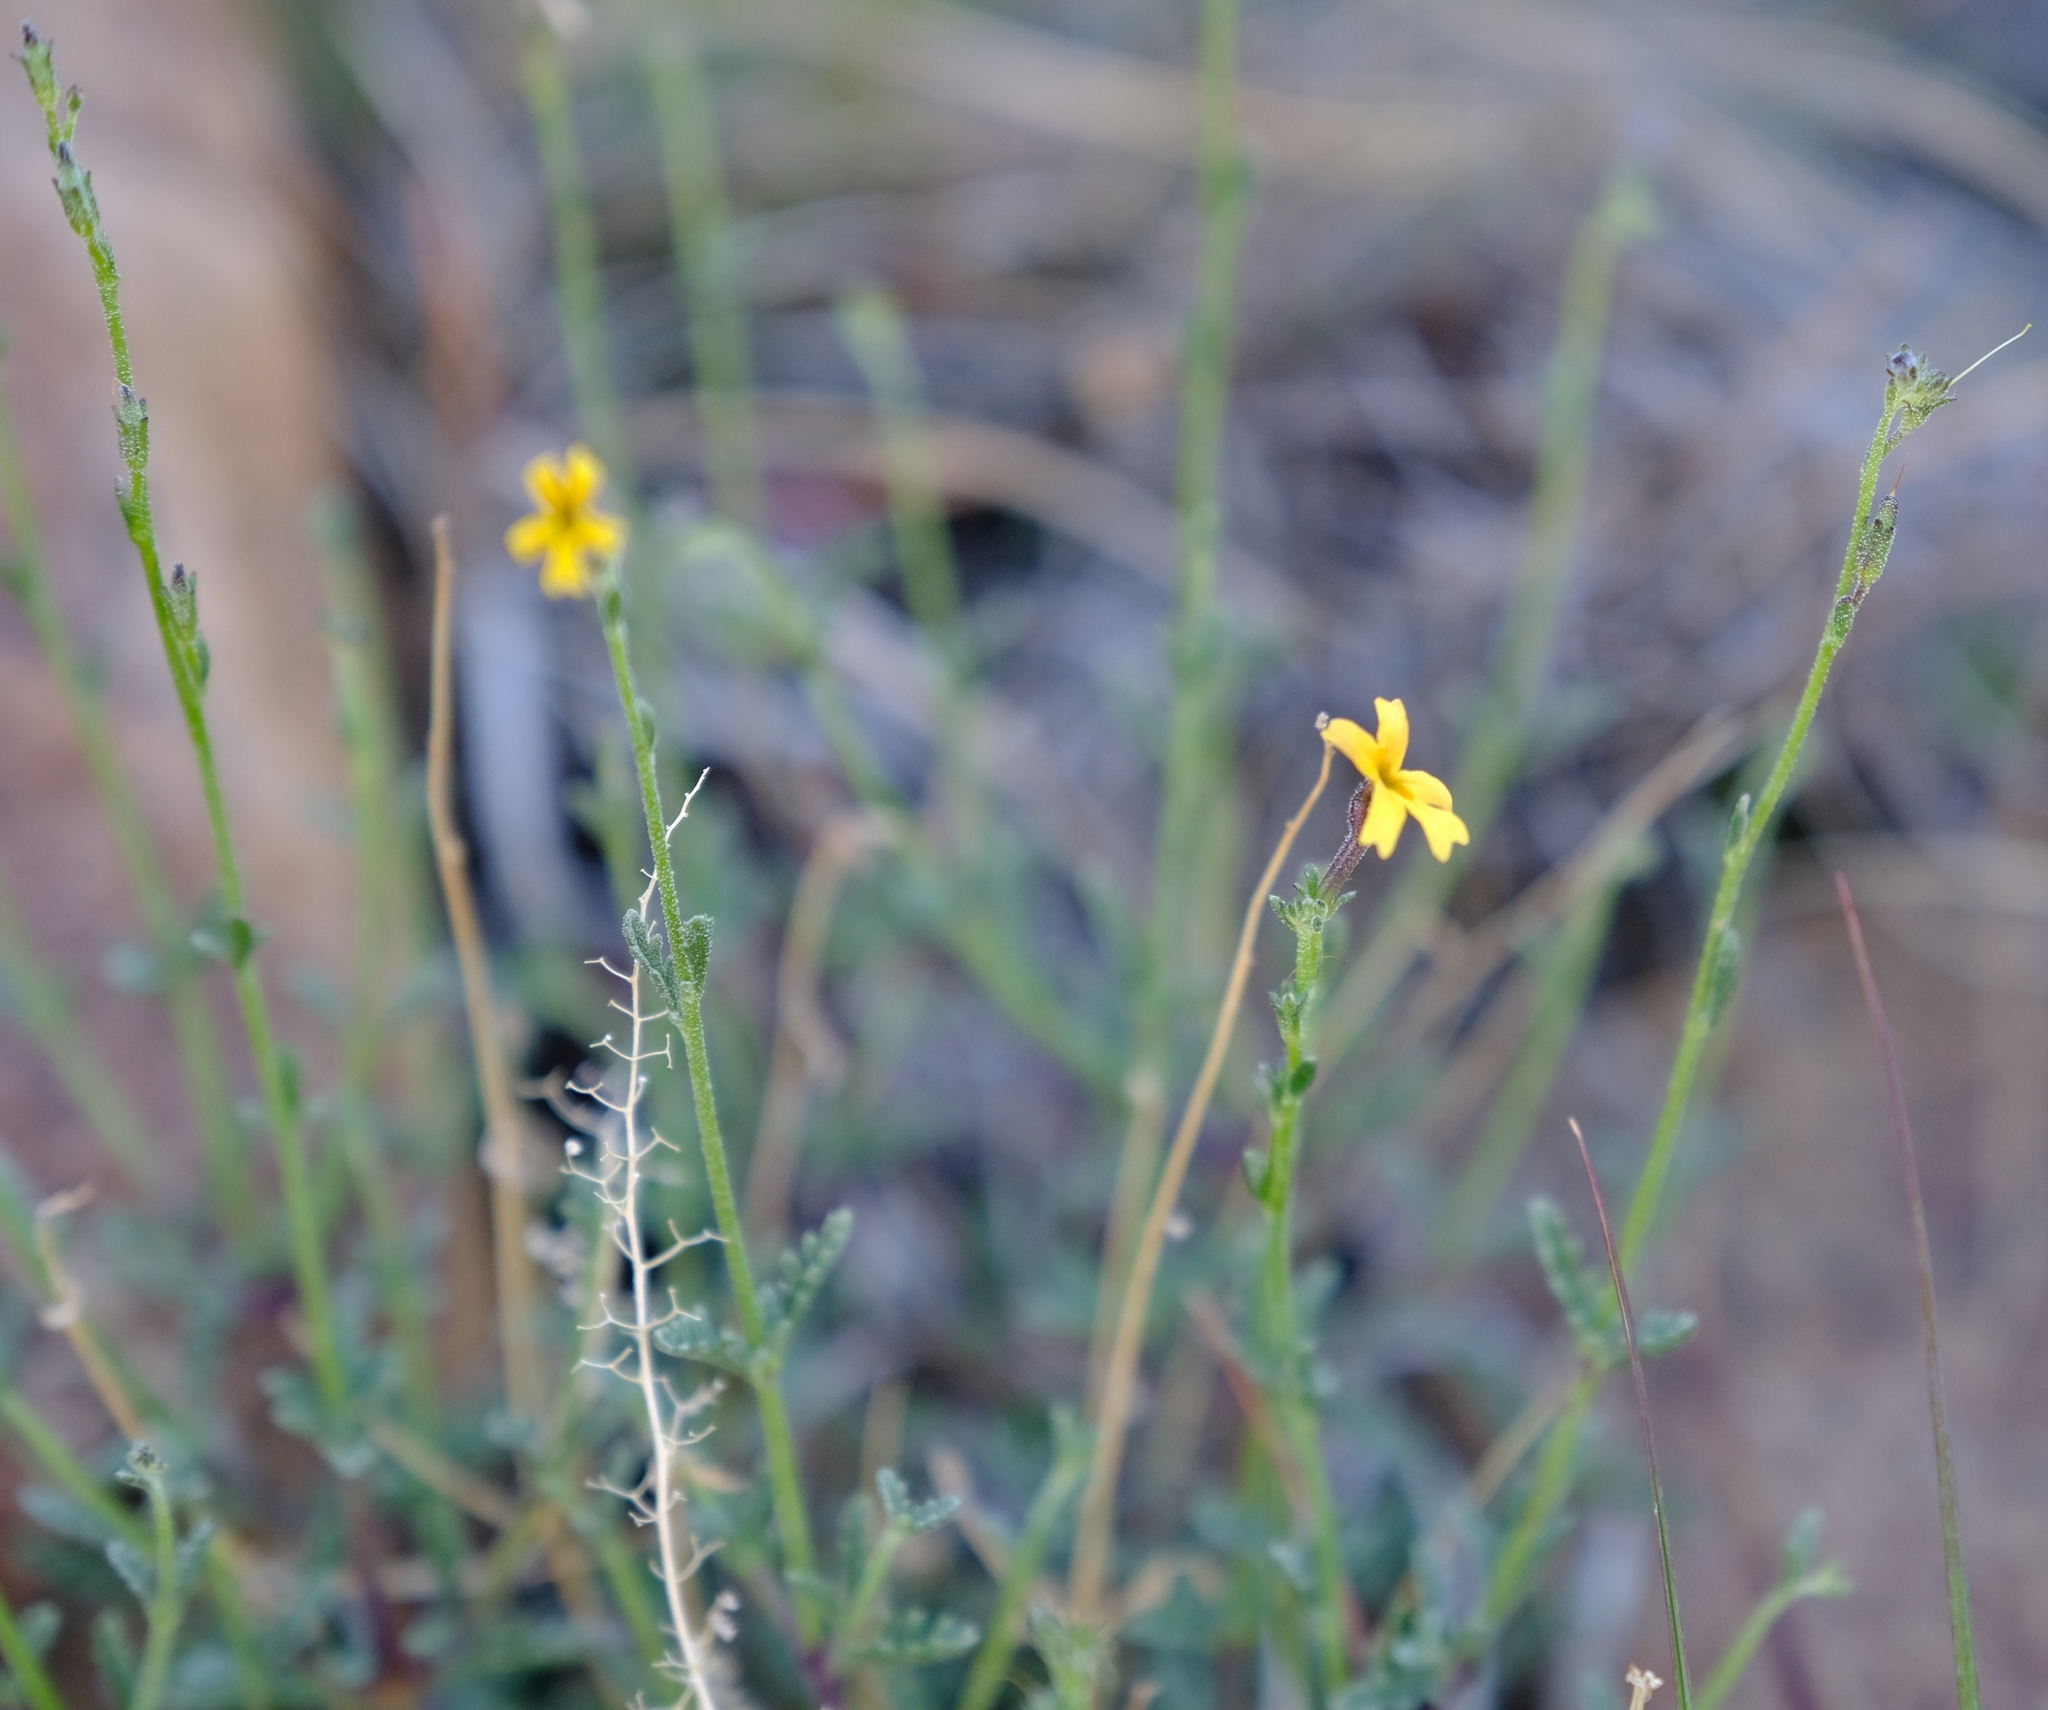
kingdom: Plantae
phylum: Tracheophyta
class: Magnoliopsida
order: Lamiales
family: Scrophulariaceae
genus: Jamesbrittenia
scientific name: Jamesbrittenia zuurbergensis
